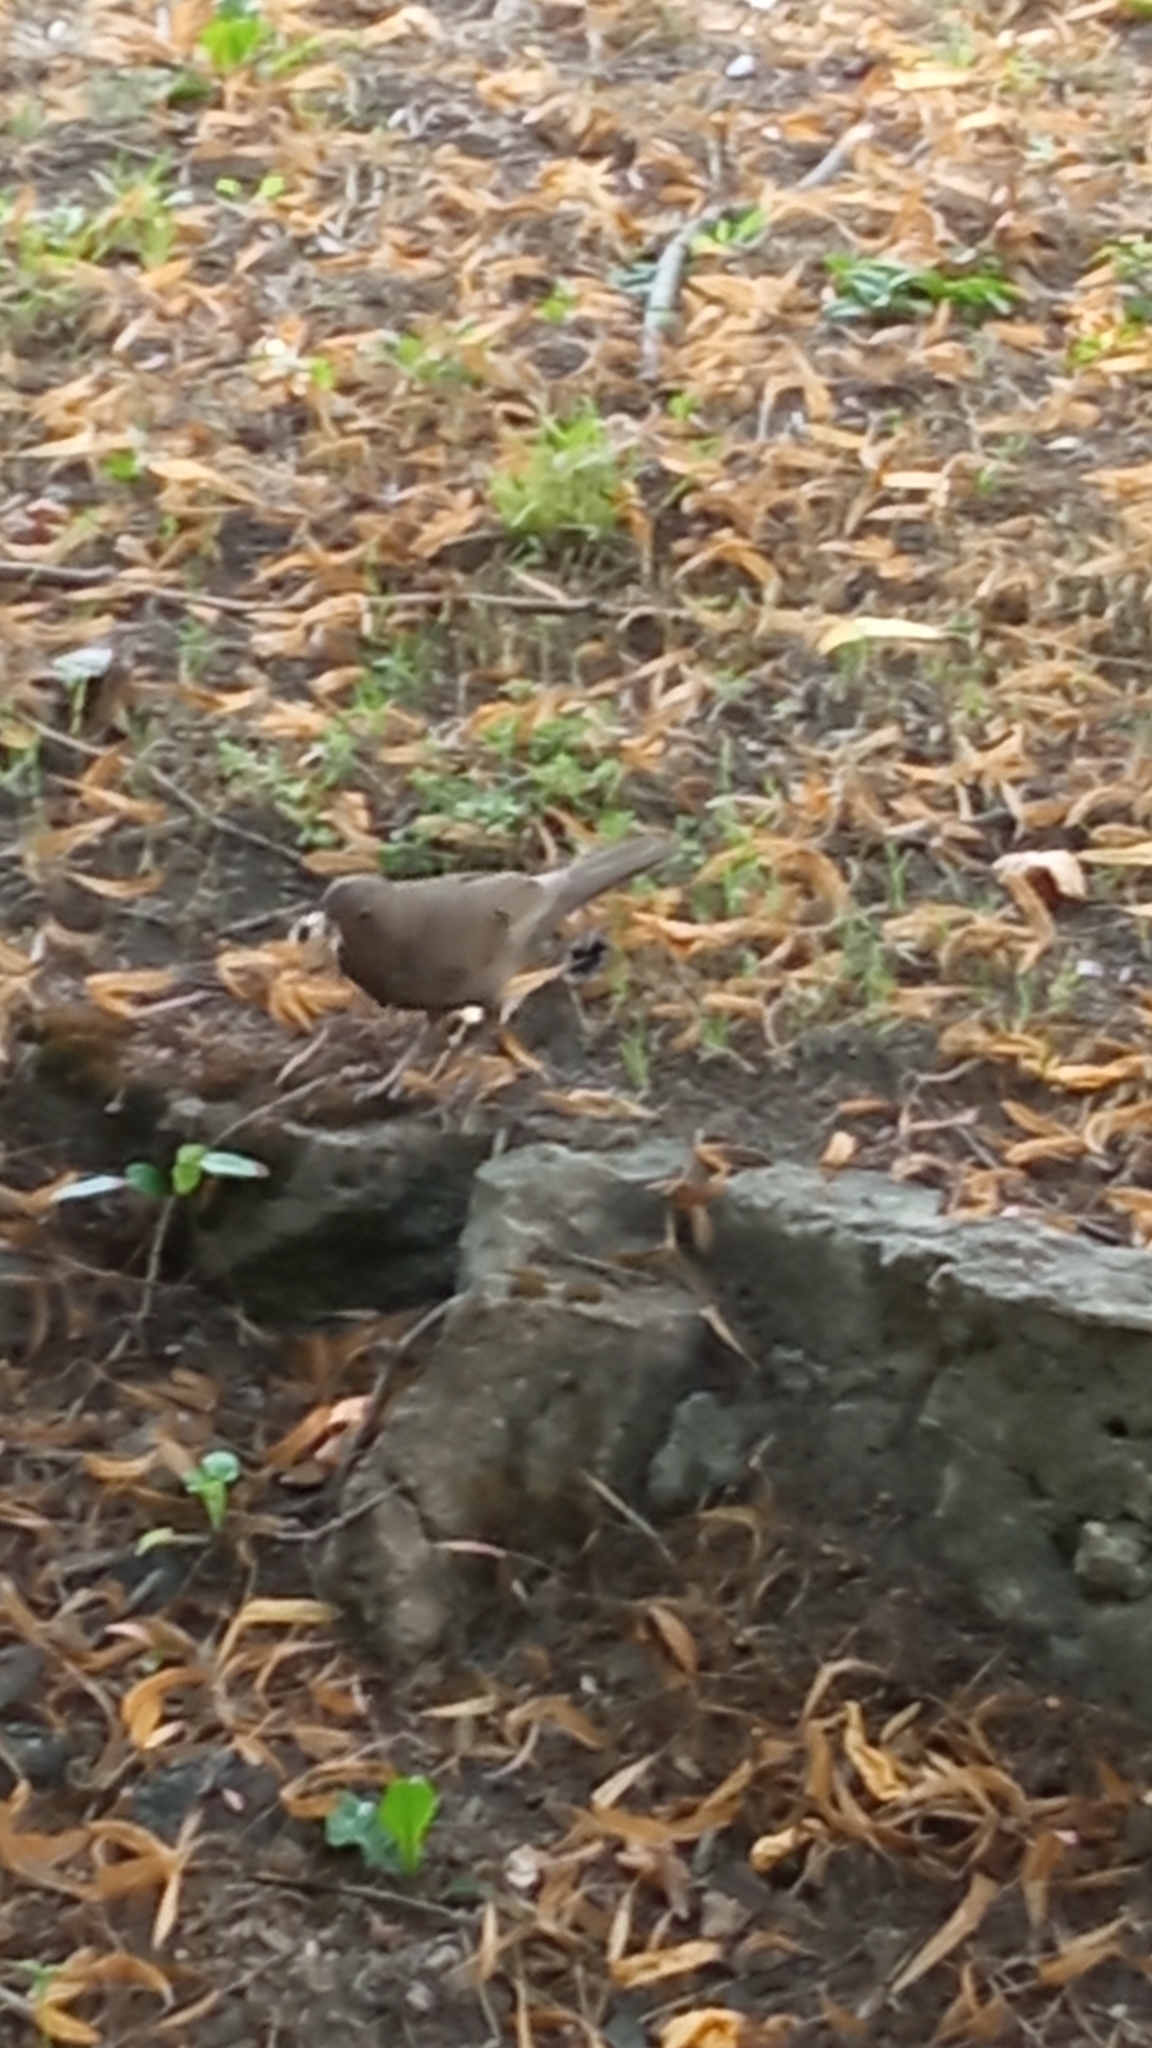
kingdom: Animalia
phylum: Chordata
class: Aves
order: Passeriformes
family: Turdidae
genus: Turdus
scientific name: Turdus merula
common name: Common blackbird
